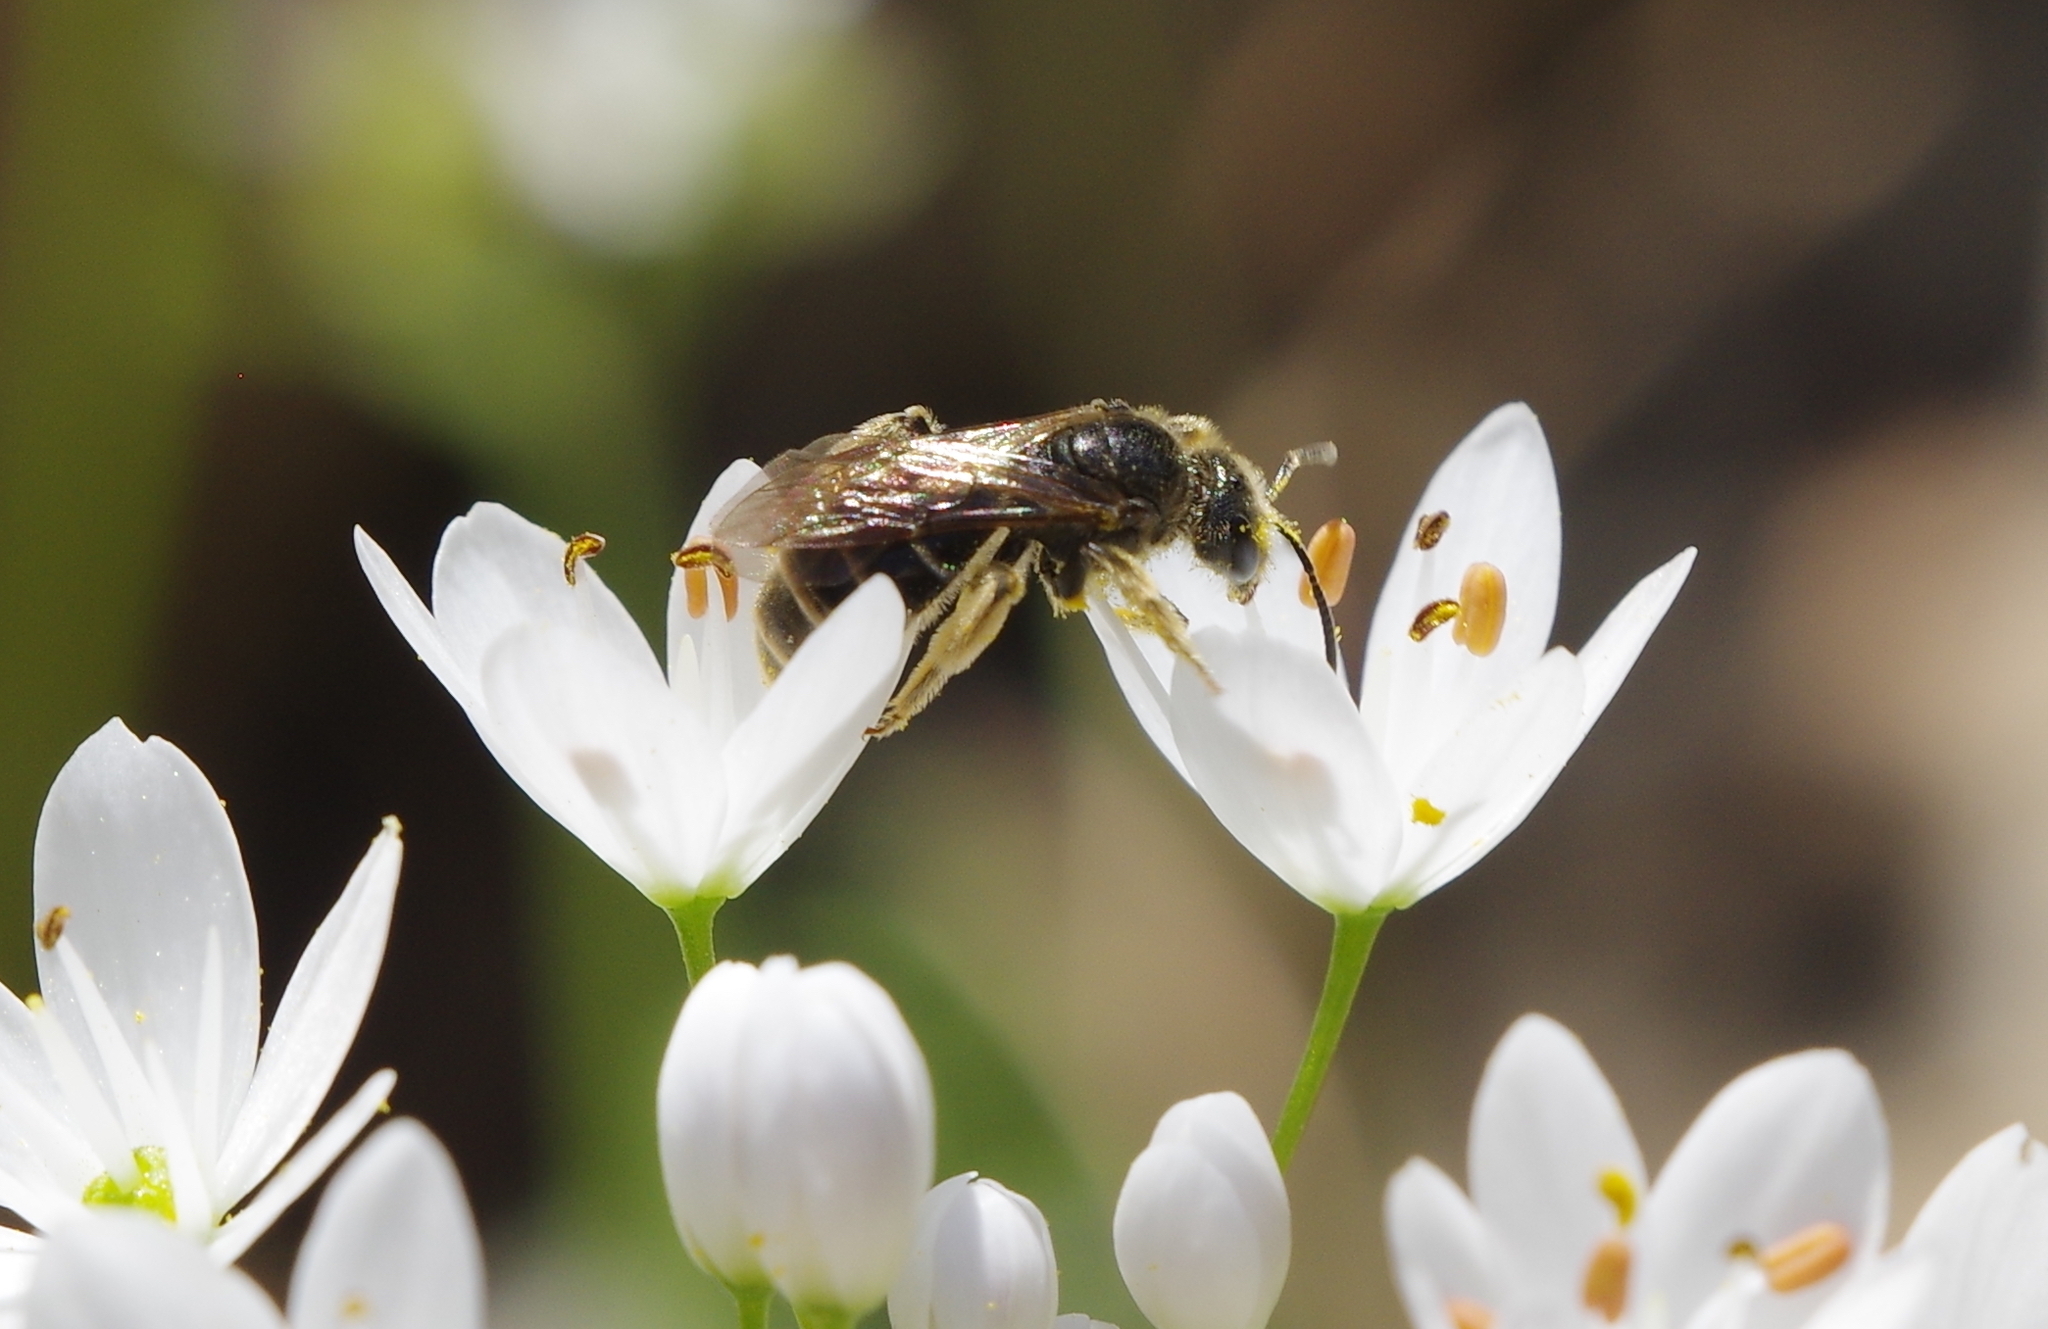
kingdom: Animalia
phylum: Arthropoda
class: Insecta
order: Hymenoptera
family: Halictidae
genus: Lasioglossum
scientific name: Lasioglossum marginatum
